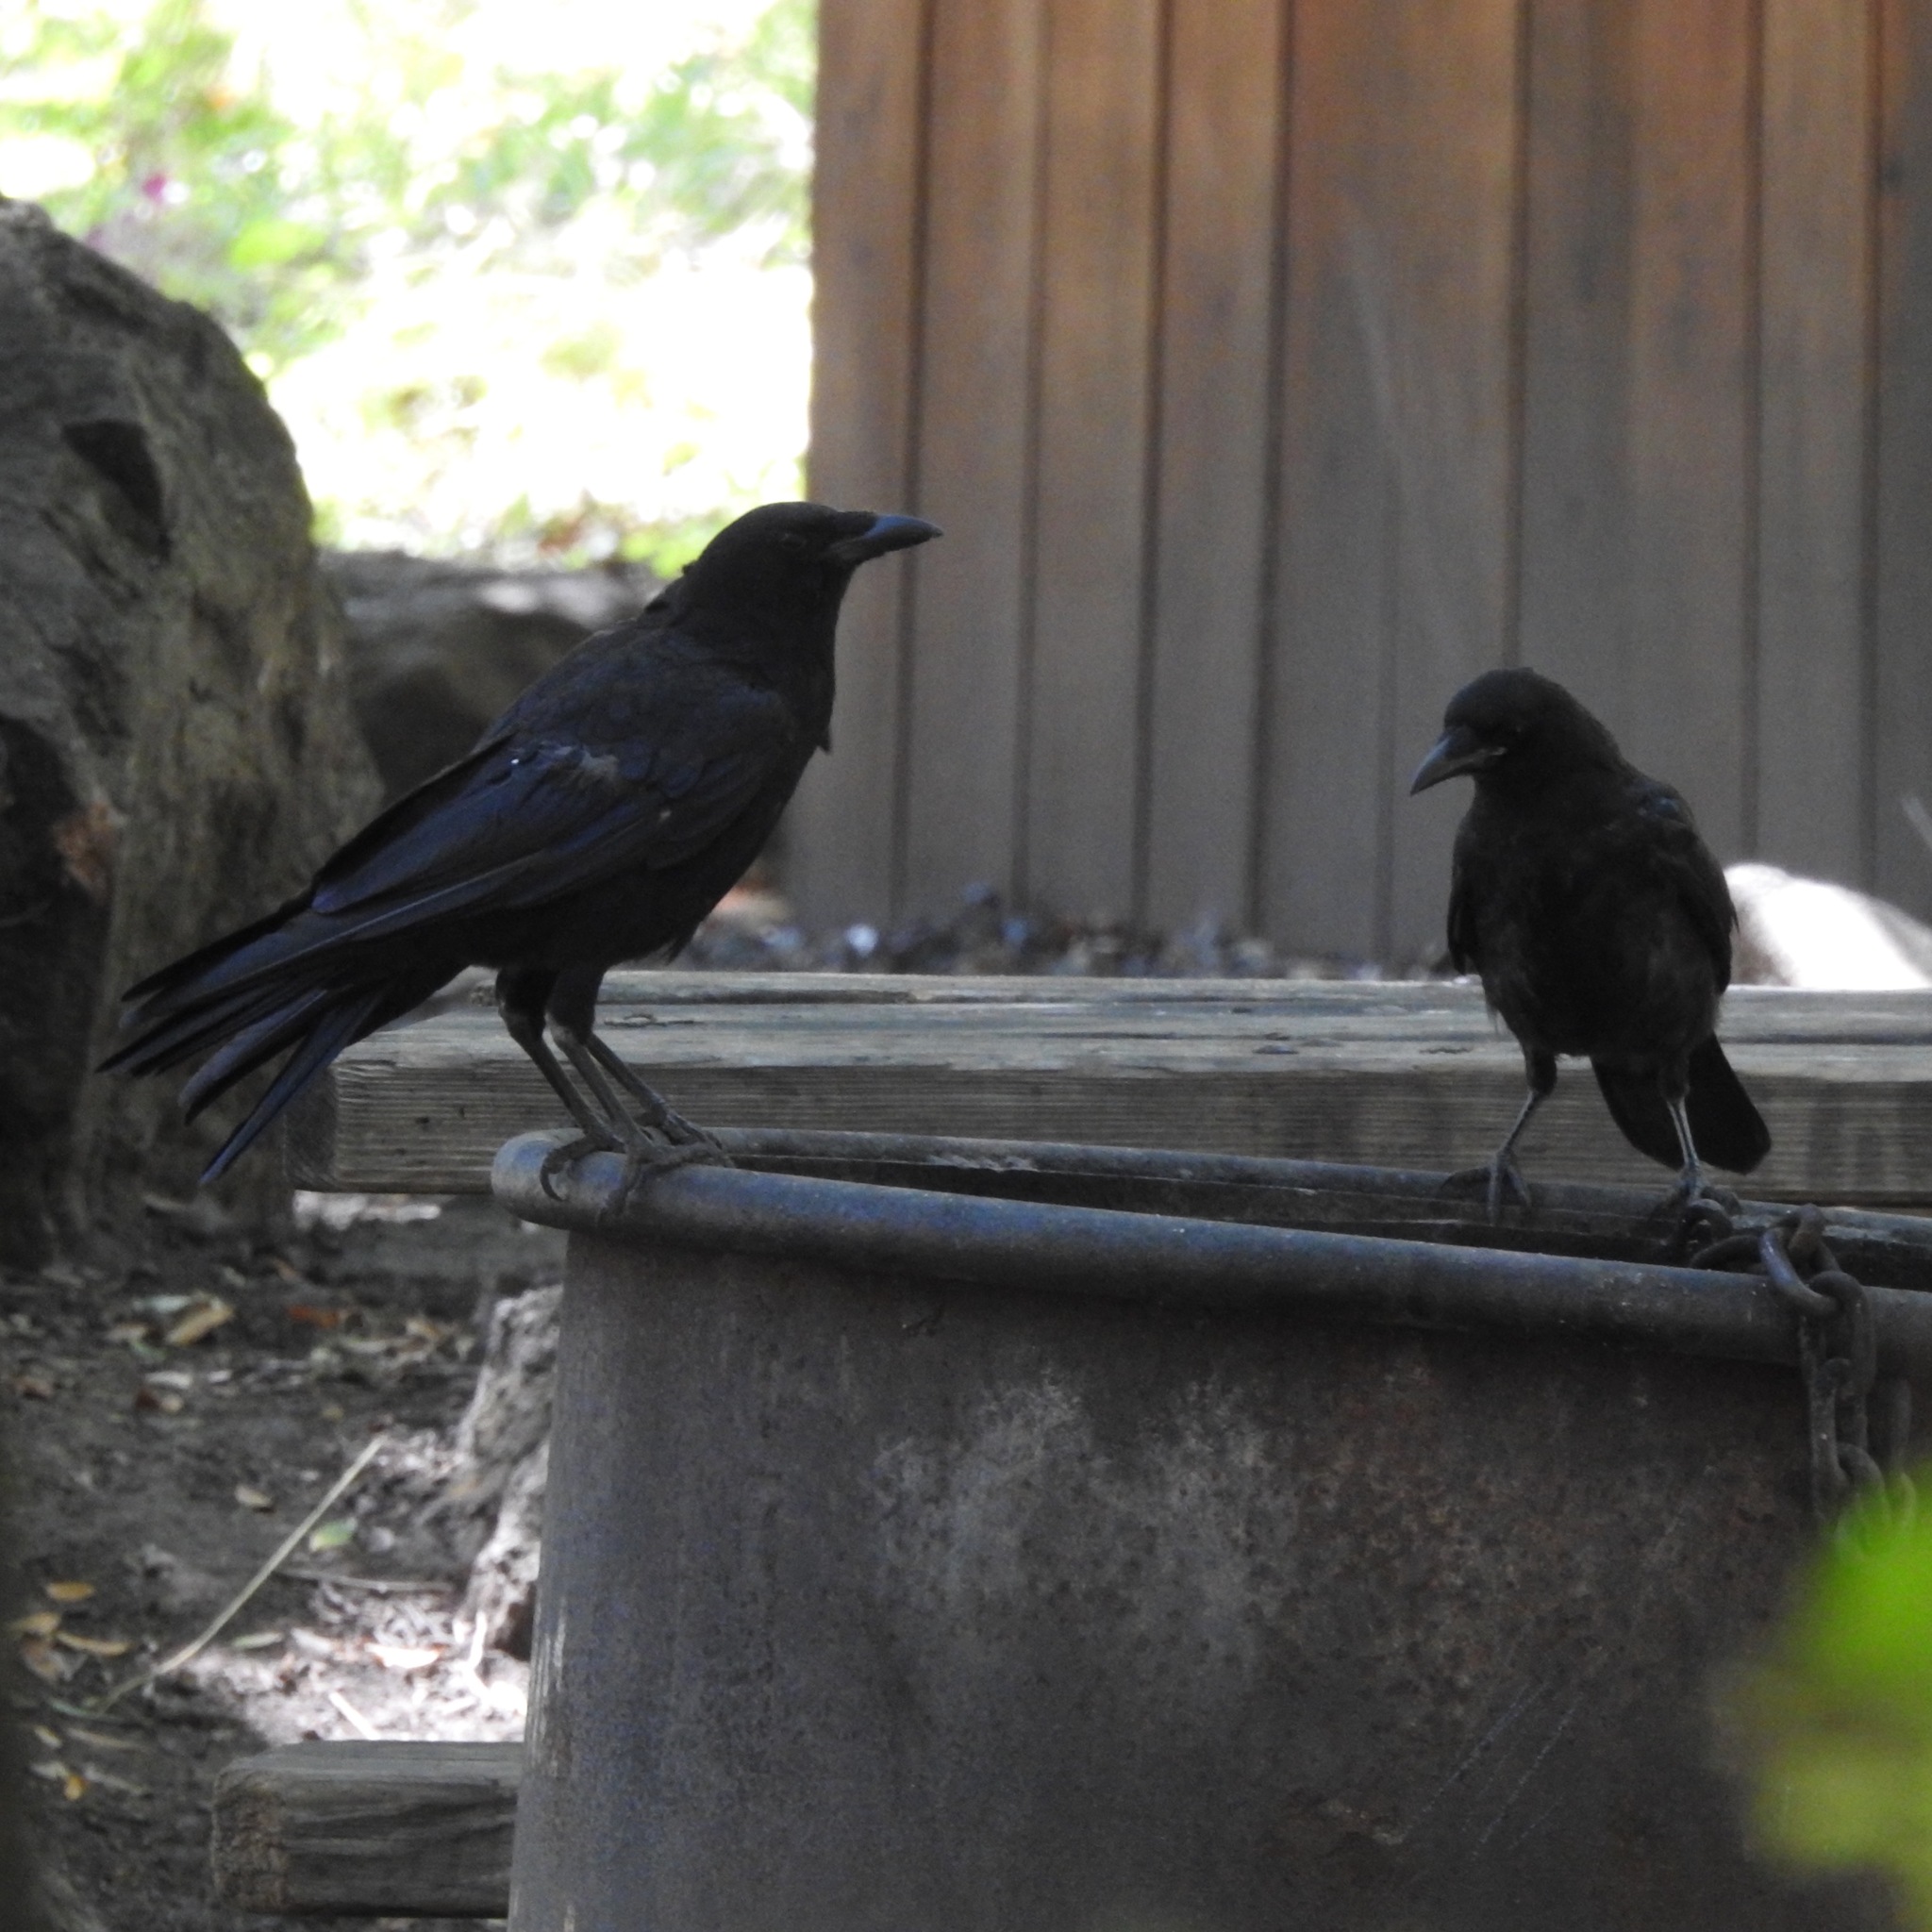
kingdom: Animalia
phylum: Chordata
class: Aves
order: Passeriformes
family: Corvidae
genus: Corvus
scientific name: Corvus corax
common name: Common raven
